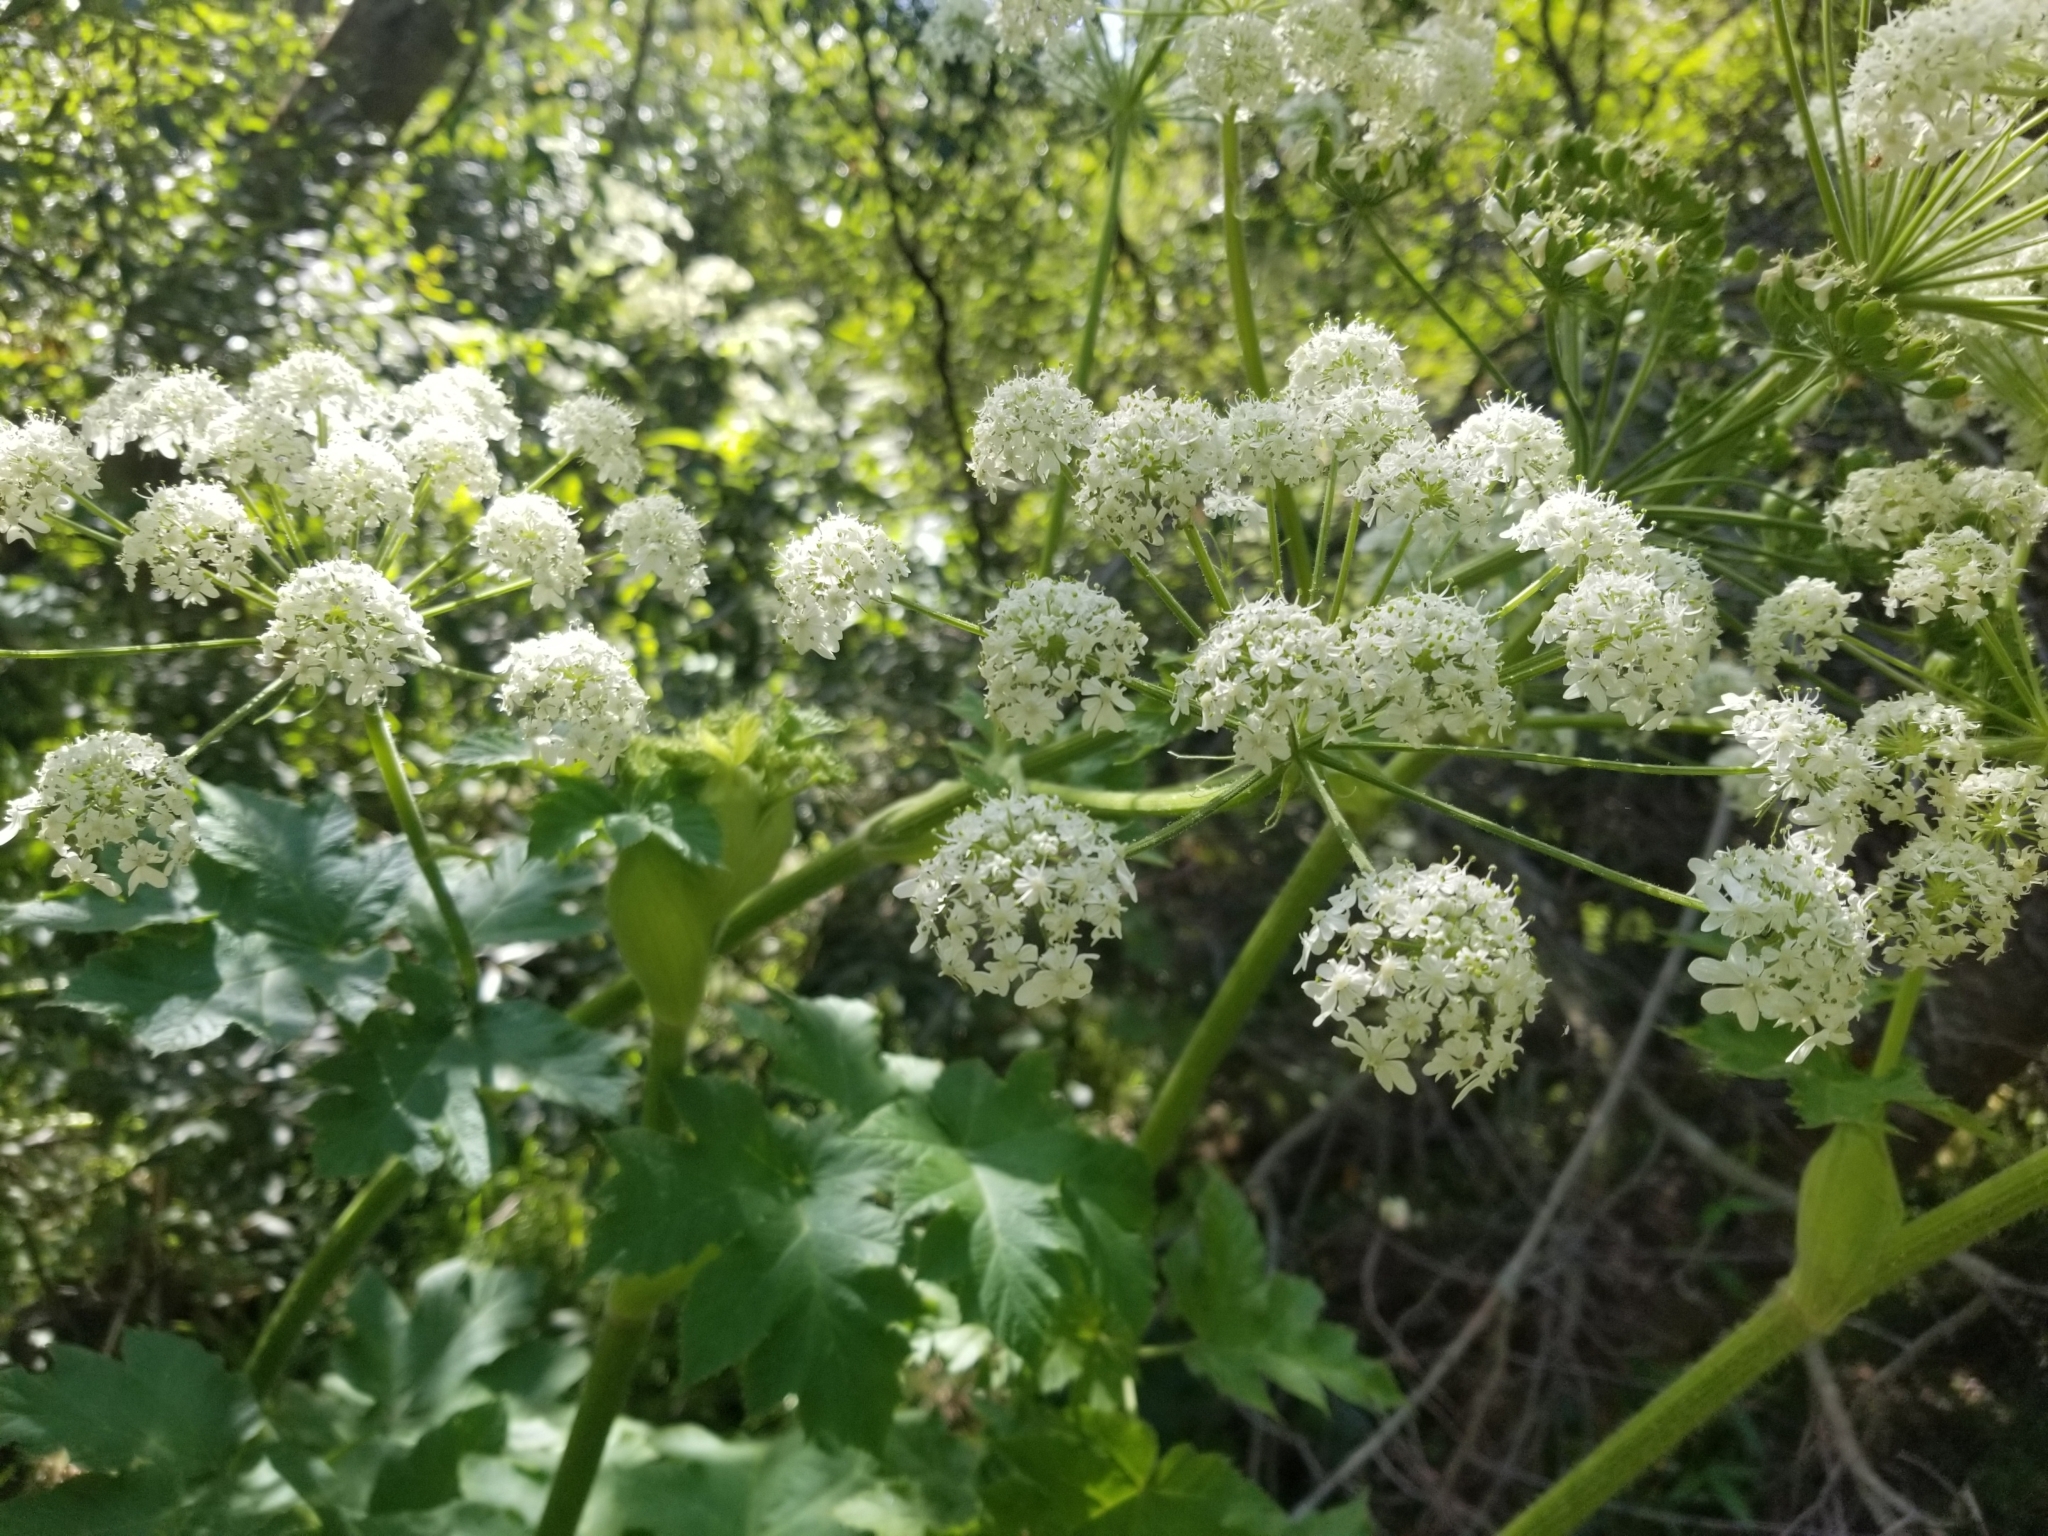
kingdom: Plantae
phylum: Tracheophyta
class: Magnoliopsida
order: Apiales
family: Apiaceae
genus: Heracleum
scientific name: Heracleum maximum
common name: American cow parsnip
